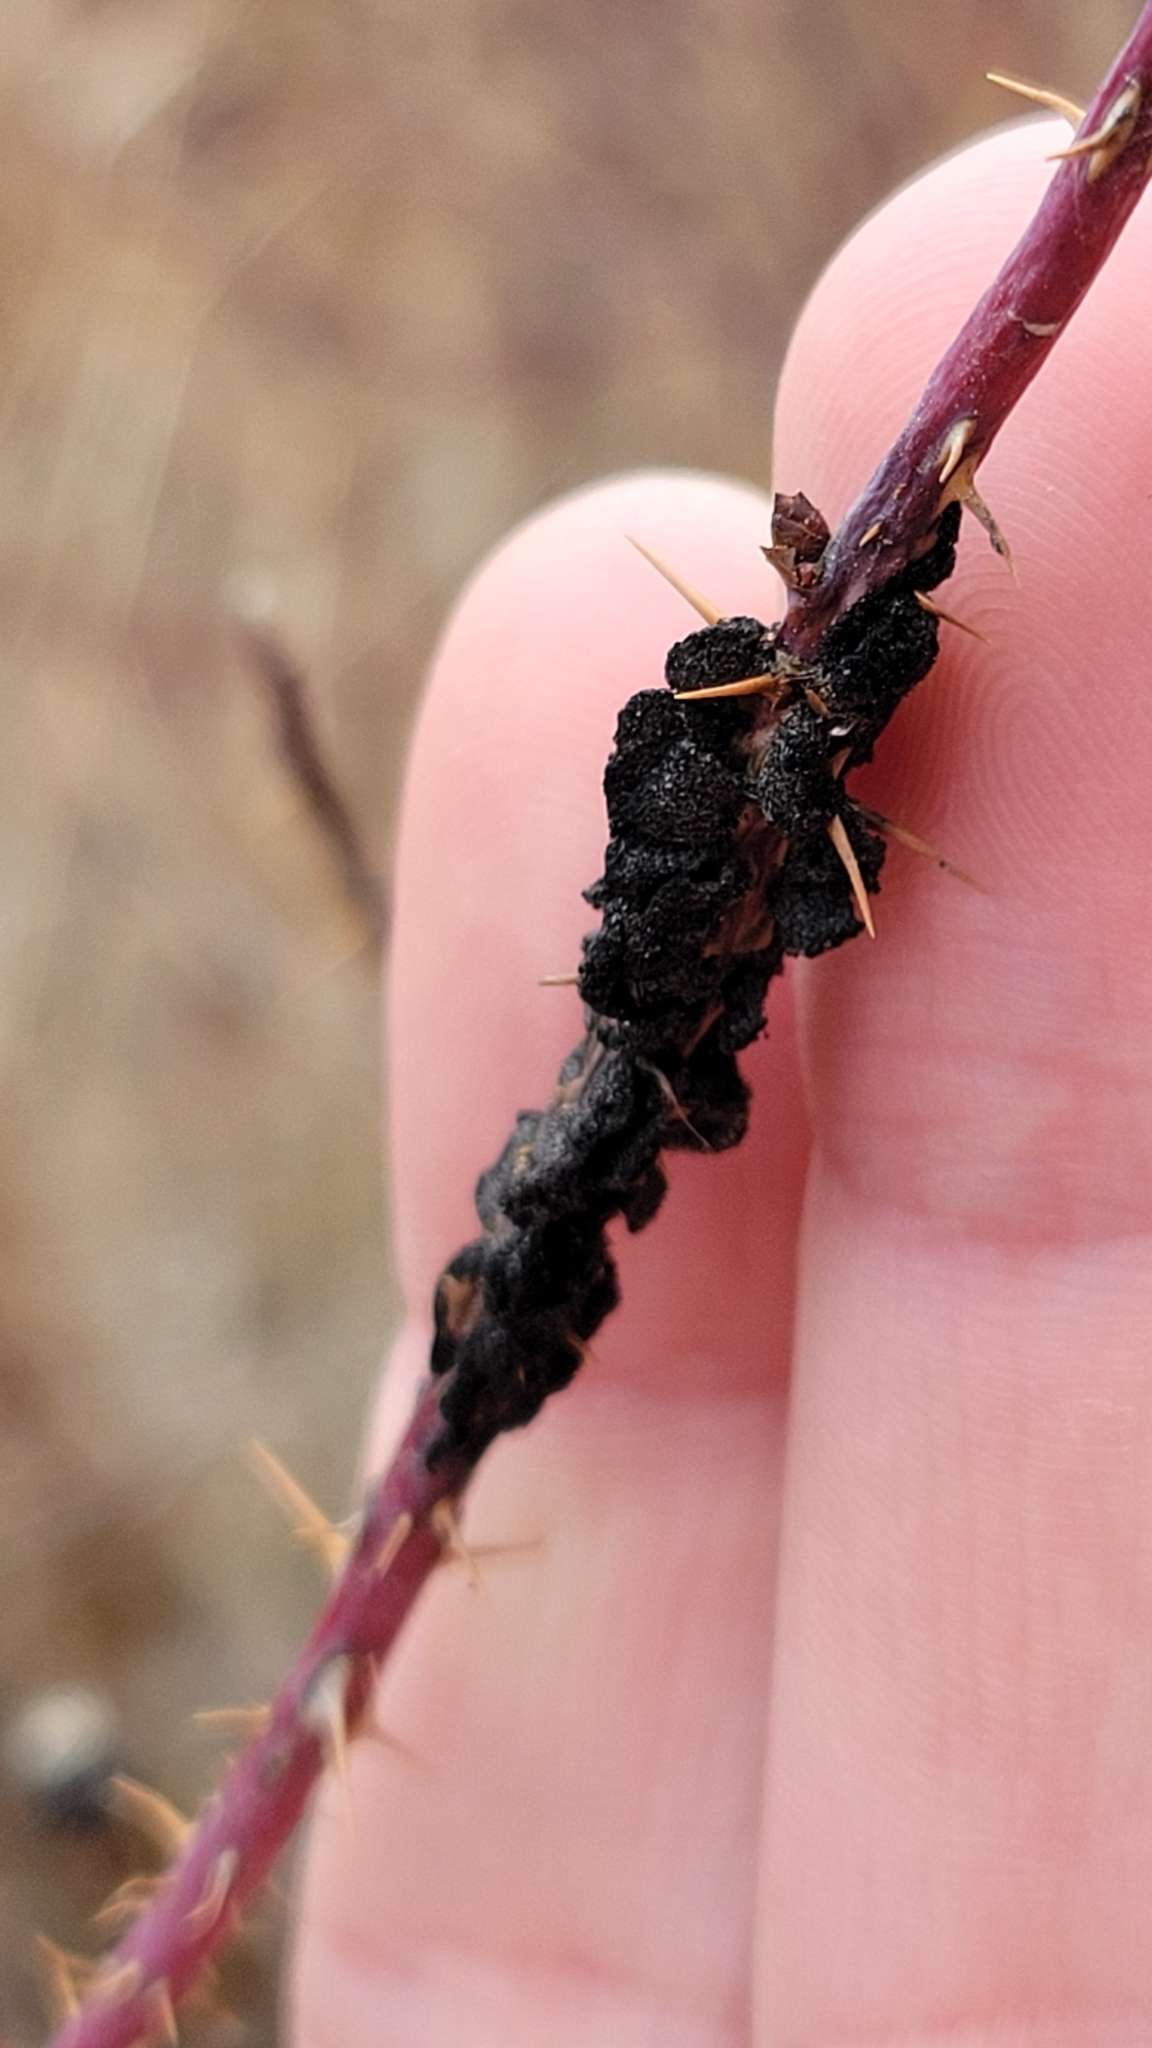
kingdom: Fungi
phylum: Ascomycota
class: Dothideomycetes
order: Venturiales
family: Venturiaceae
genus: Apiosporina
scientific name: Apiosporina morbosa
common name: Black knot
